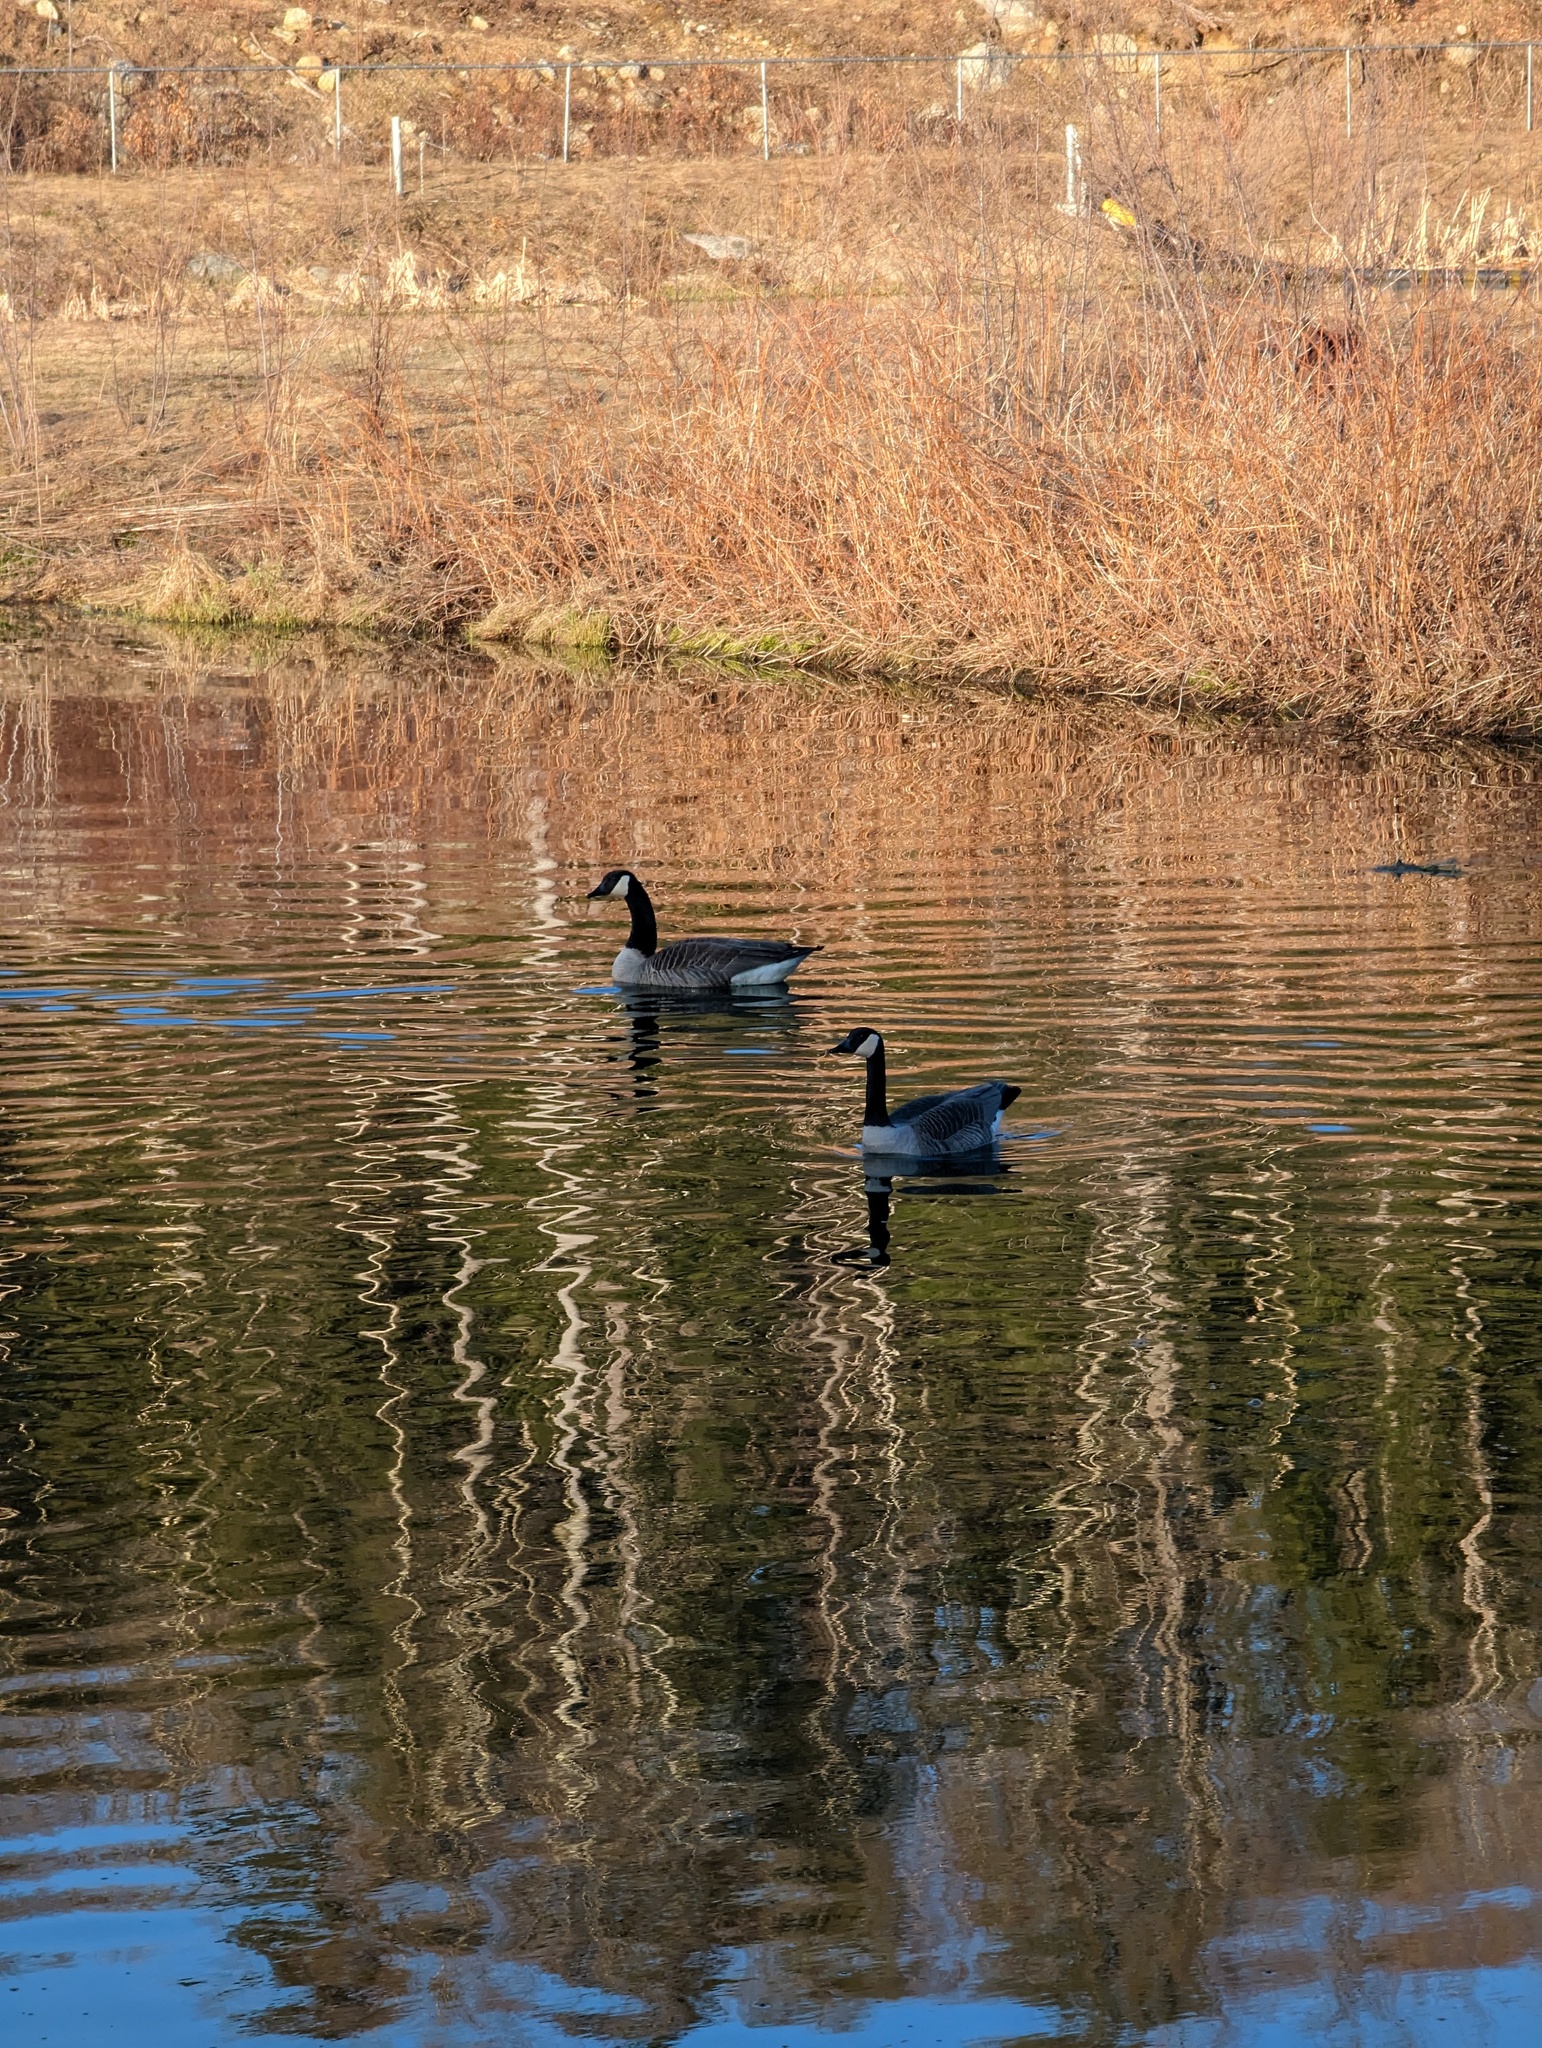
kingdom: Animalia
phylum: Chordata
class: Aves
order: Anseriformes
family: Anatidae
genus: Branta
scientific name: Branta canadensis
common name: Canada goose
